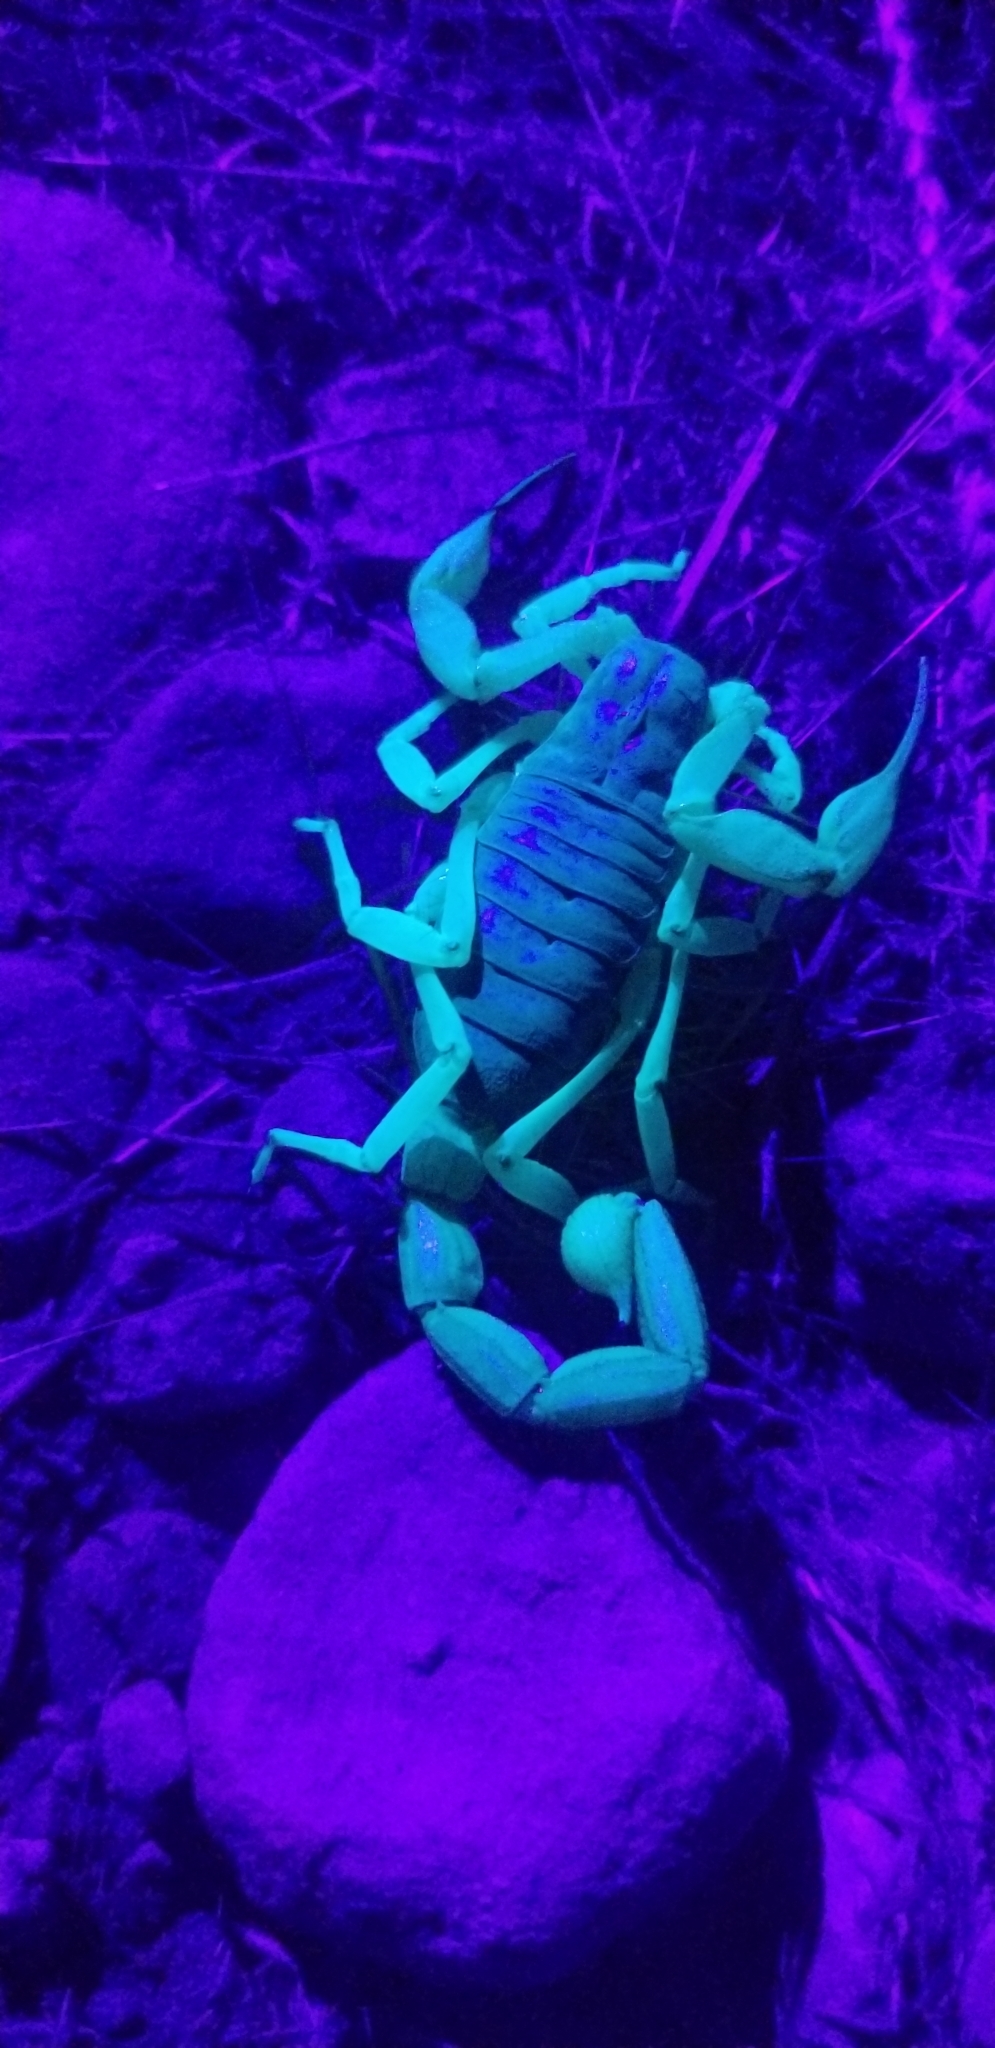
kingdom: Animalia
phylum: Arthropoda
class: Arachnida
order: Scorpiones
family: Hadruridae
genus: Hadrurus
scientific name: Hadrurus spadix
